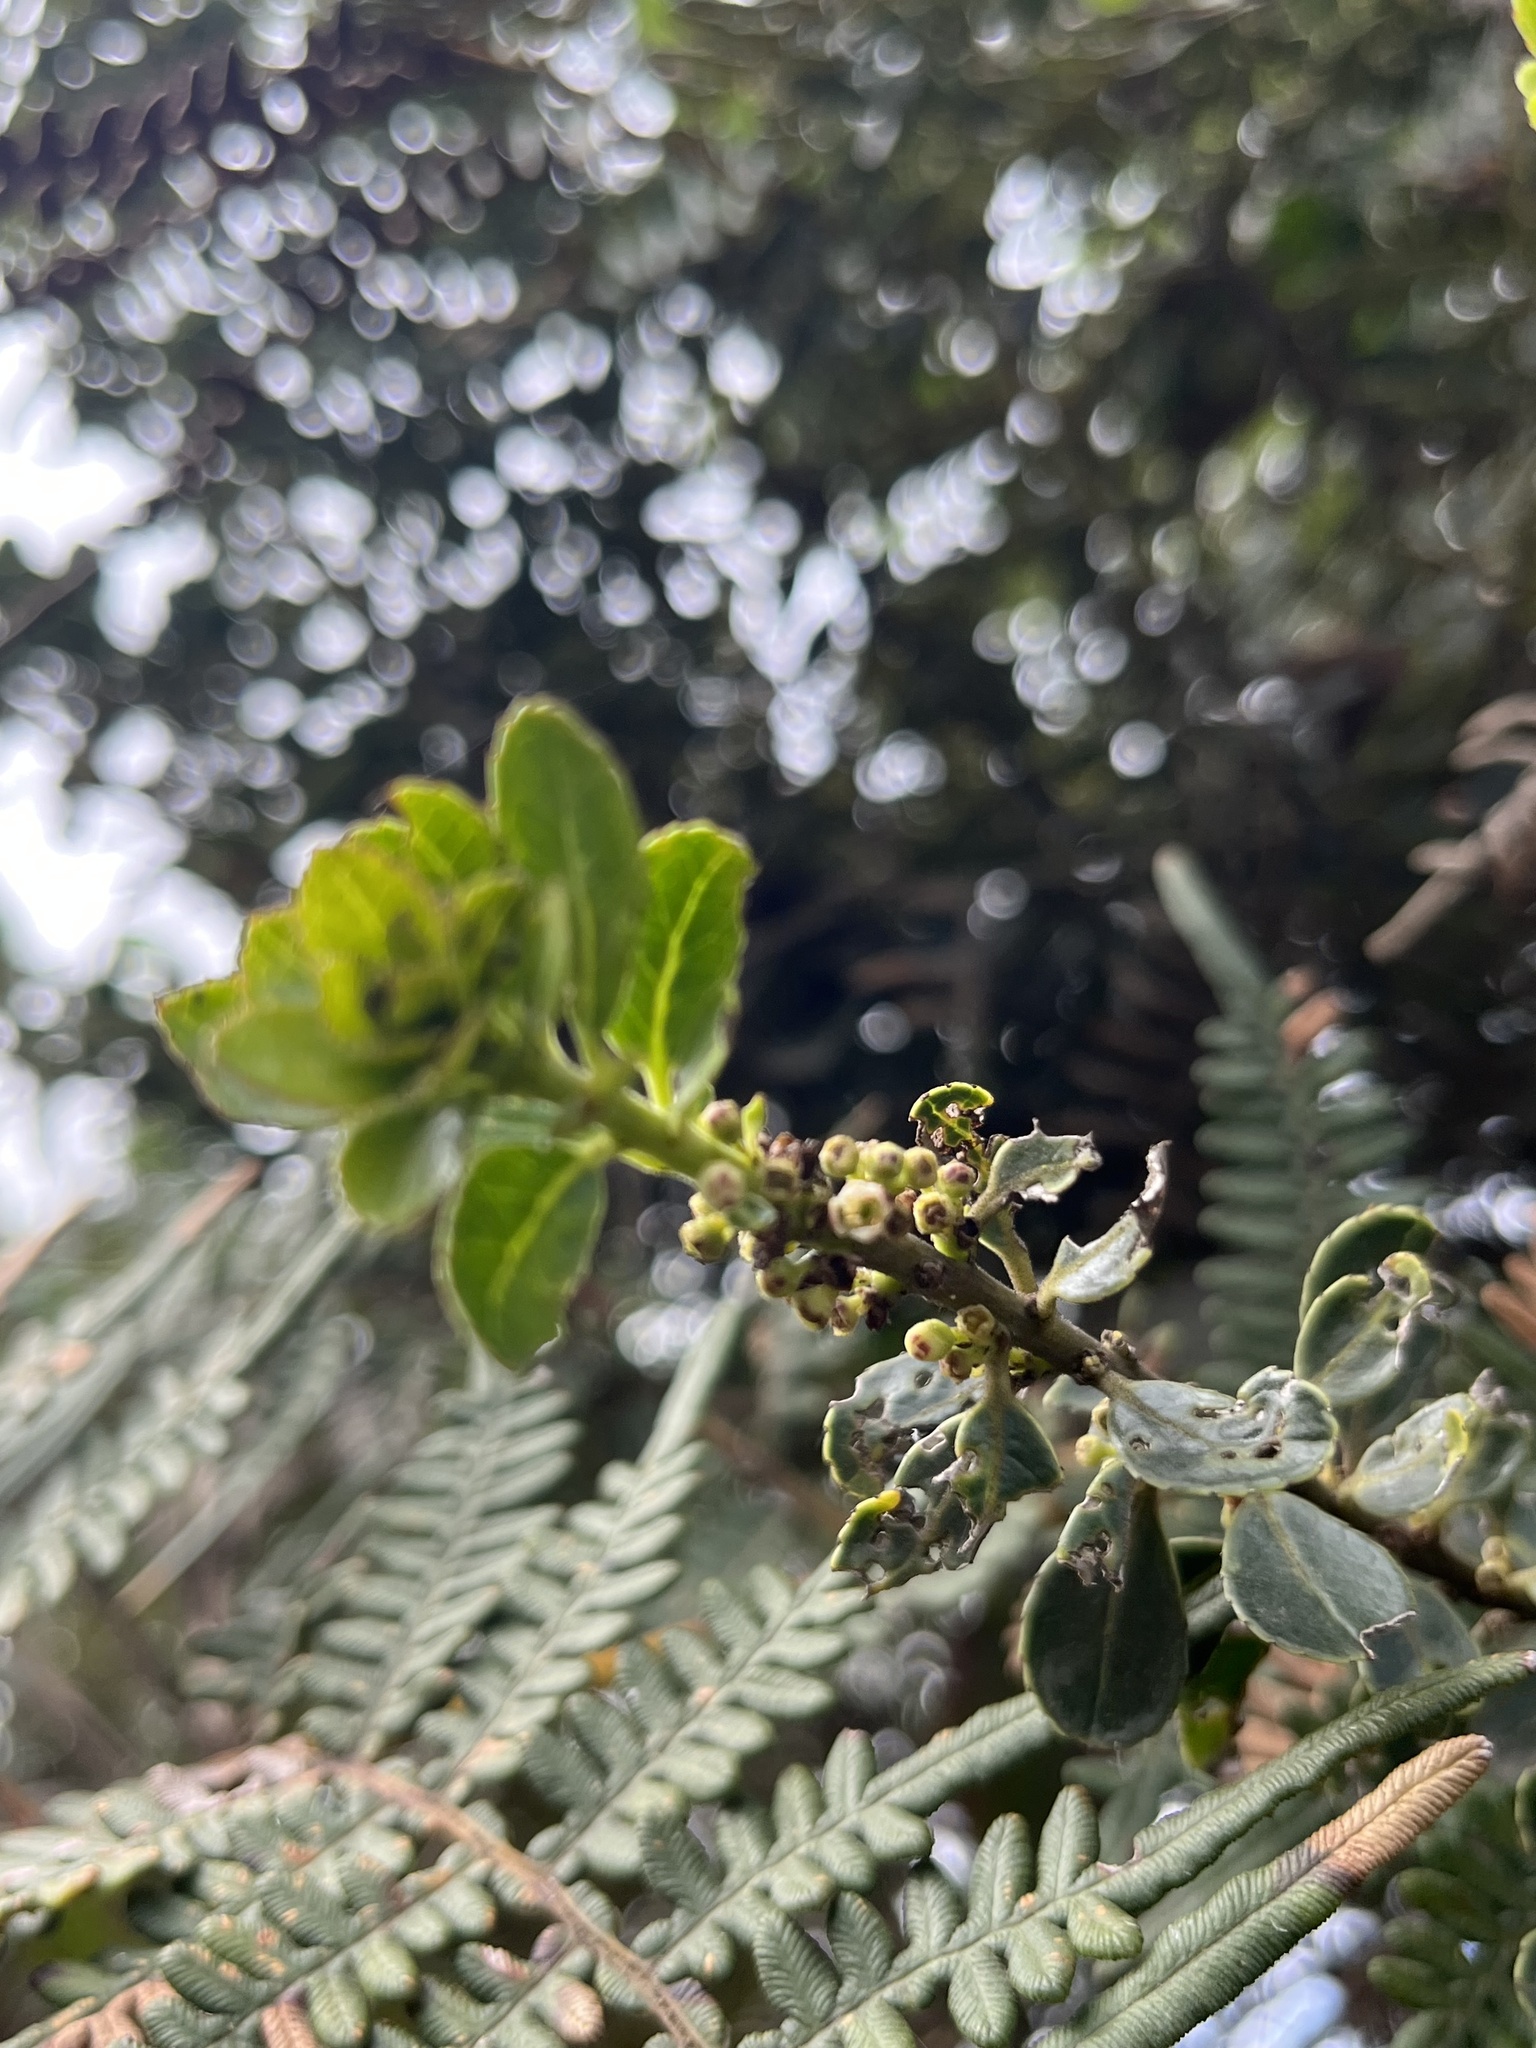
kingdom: Plantae
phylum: Tracheophyta
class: Magnoliopsida
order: Aquifoliales
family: Aquifoliaceae
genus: Ilex
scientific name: Ilex microphylla
